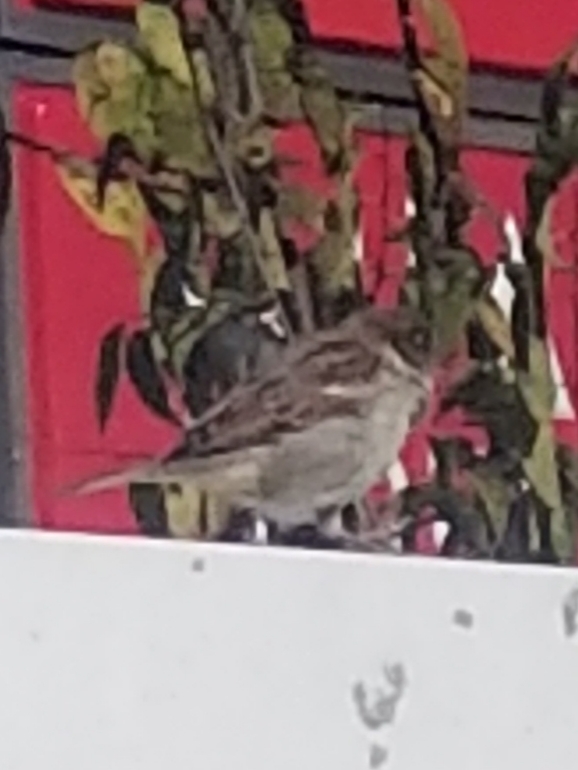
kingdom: Animalia
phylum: Chordata
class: Aves
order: Passeriformes
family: Passeridae
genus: Passer
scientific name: Passer domesticus
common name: House sparrow
